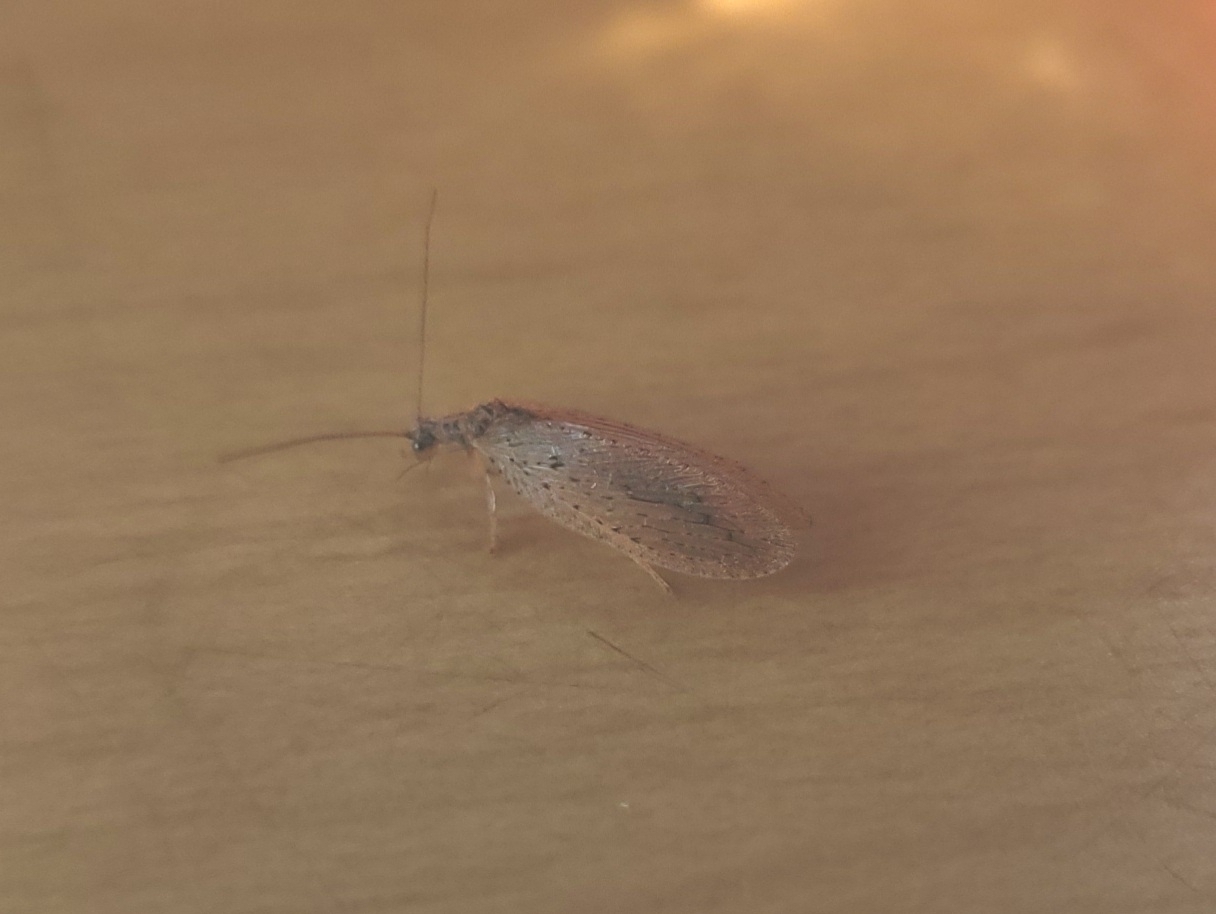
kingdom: Animalia
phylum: Arthropoda
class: Insecta
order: Neuroptera
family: Hemerobiidae
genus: Micromus
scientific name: Micromus subanticus
